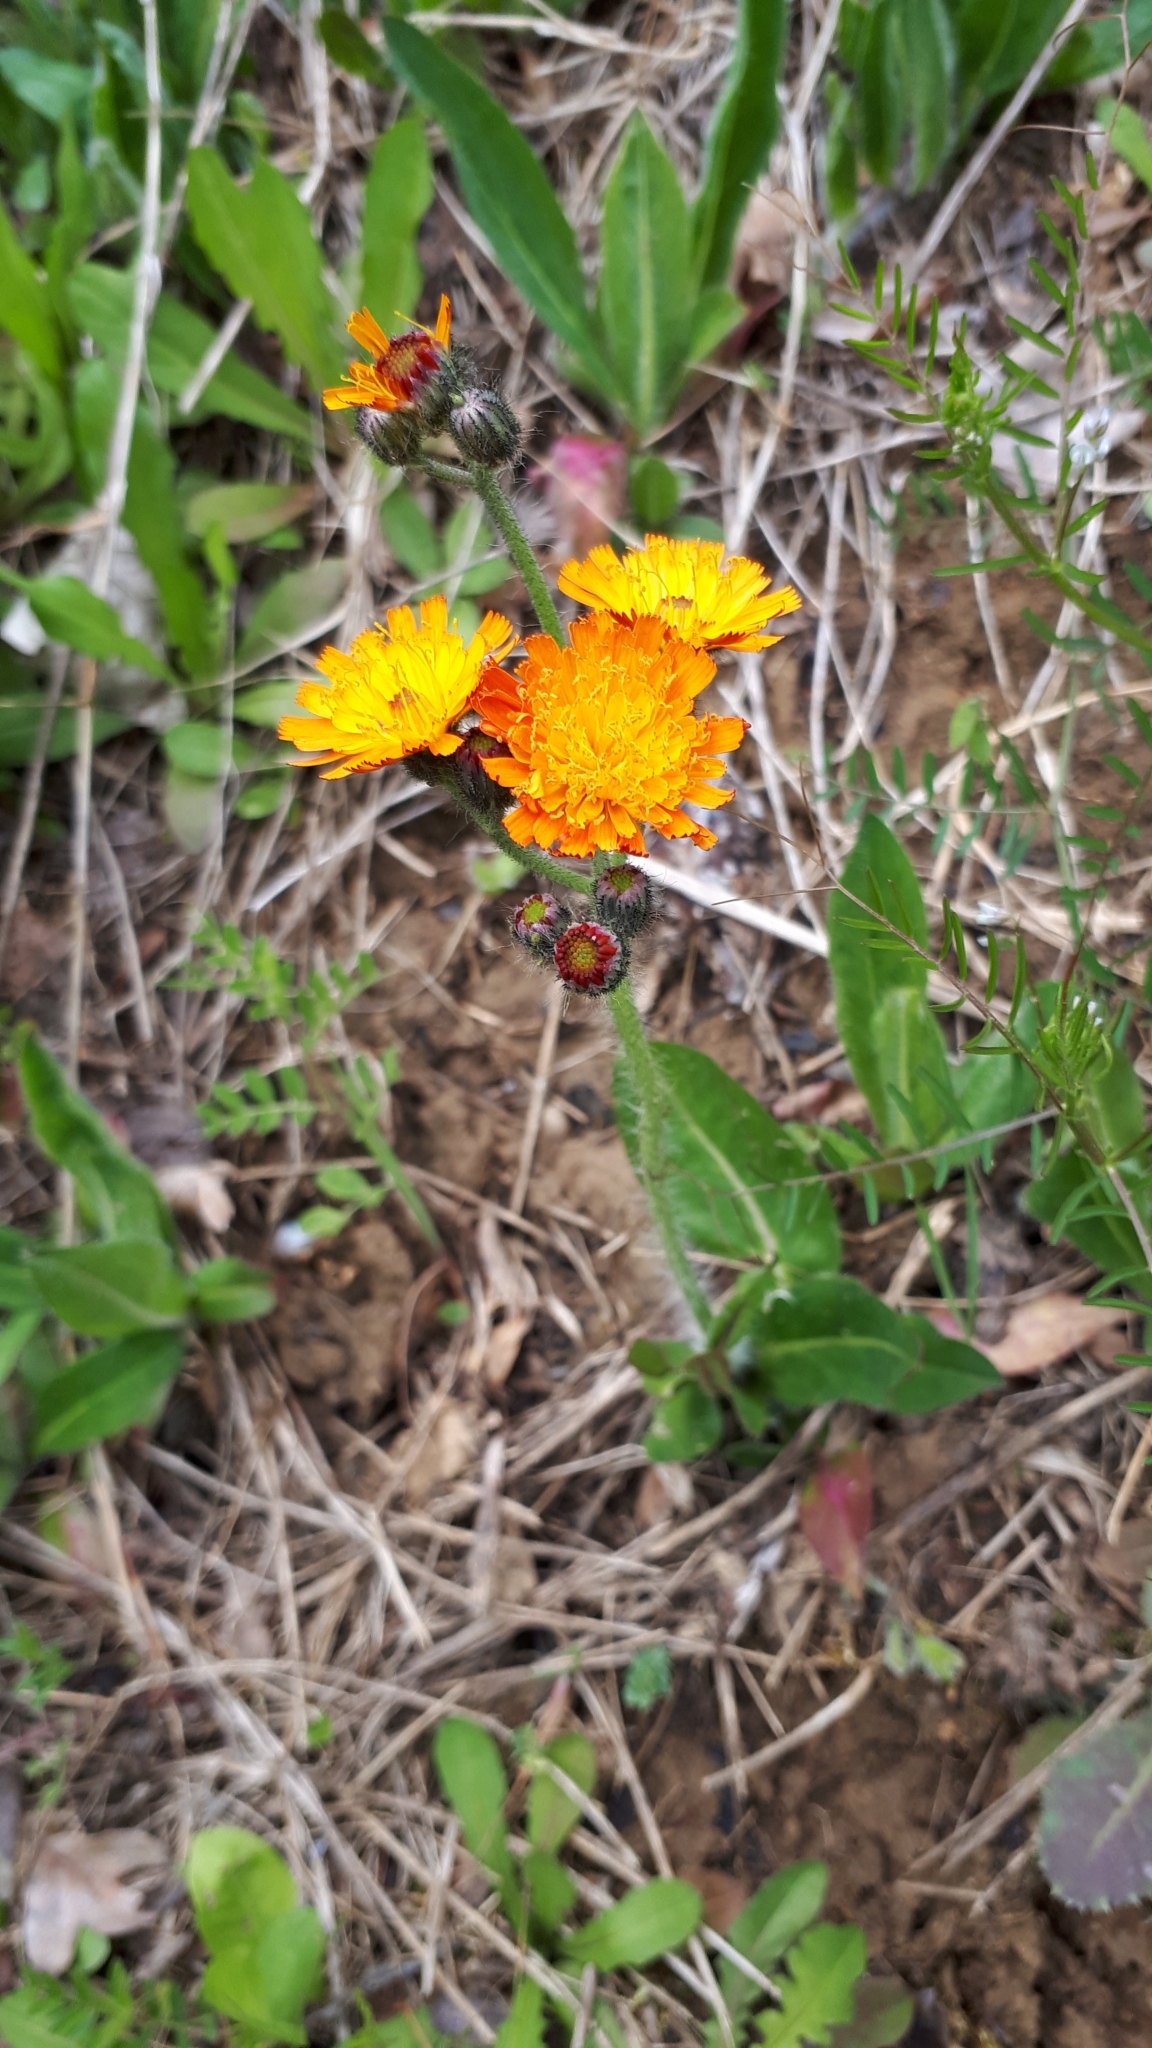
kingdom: Plantae
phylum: Tracheophyta
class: Magnoliopsida
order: Asterales
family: Asteraceae
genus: Pilosella
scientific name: Pilosella aurantiaca
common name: Fox-and-cubs
